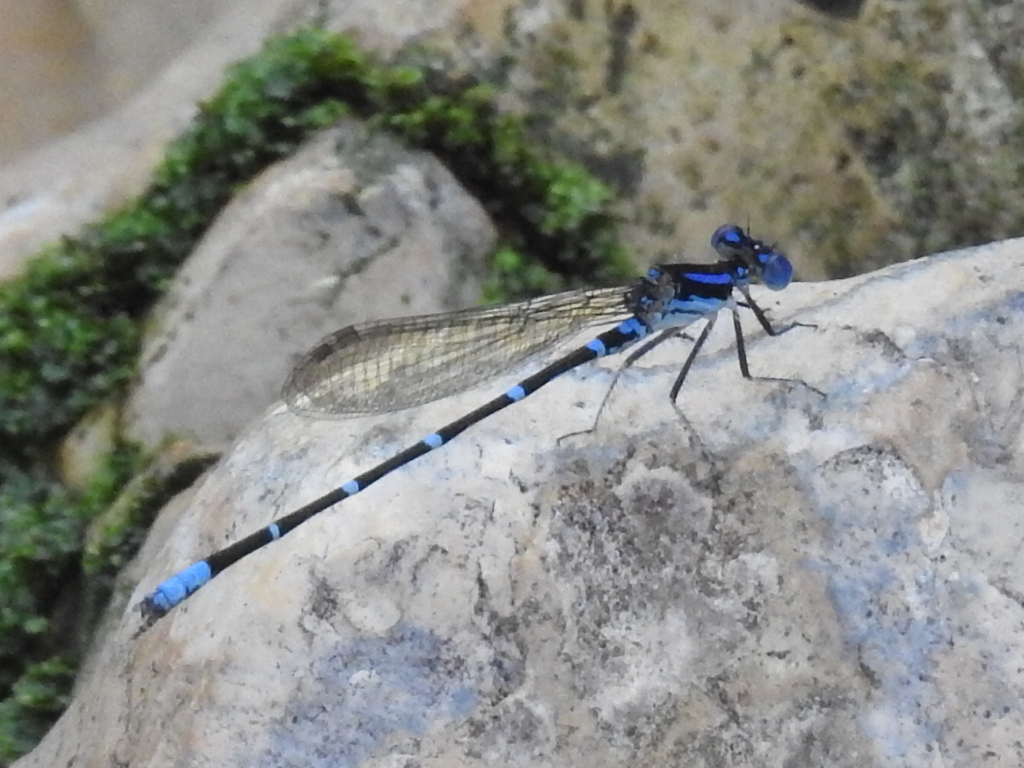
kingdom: Animalia
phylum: Arthropoda
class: Insecta
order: Odonata
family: Coenagrionidae
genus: Argia
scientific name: Argia sedula
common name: Blue-ringed dancer
